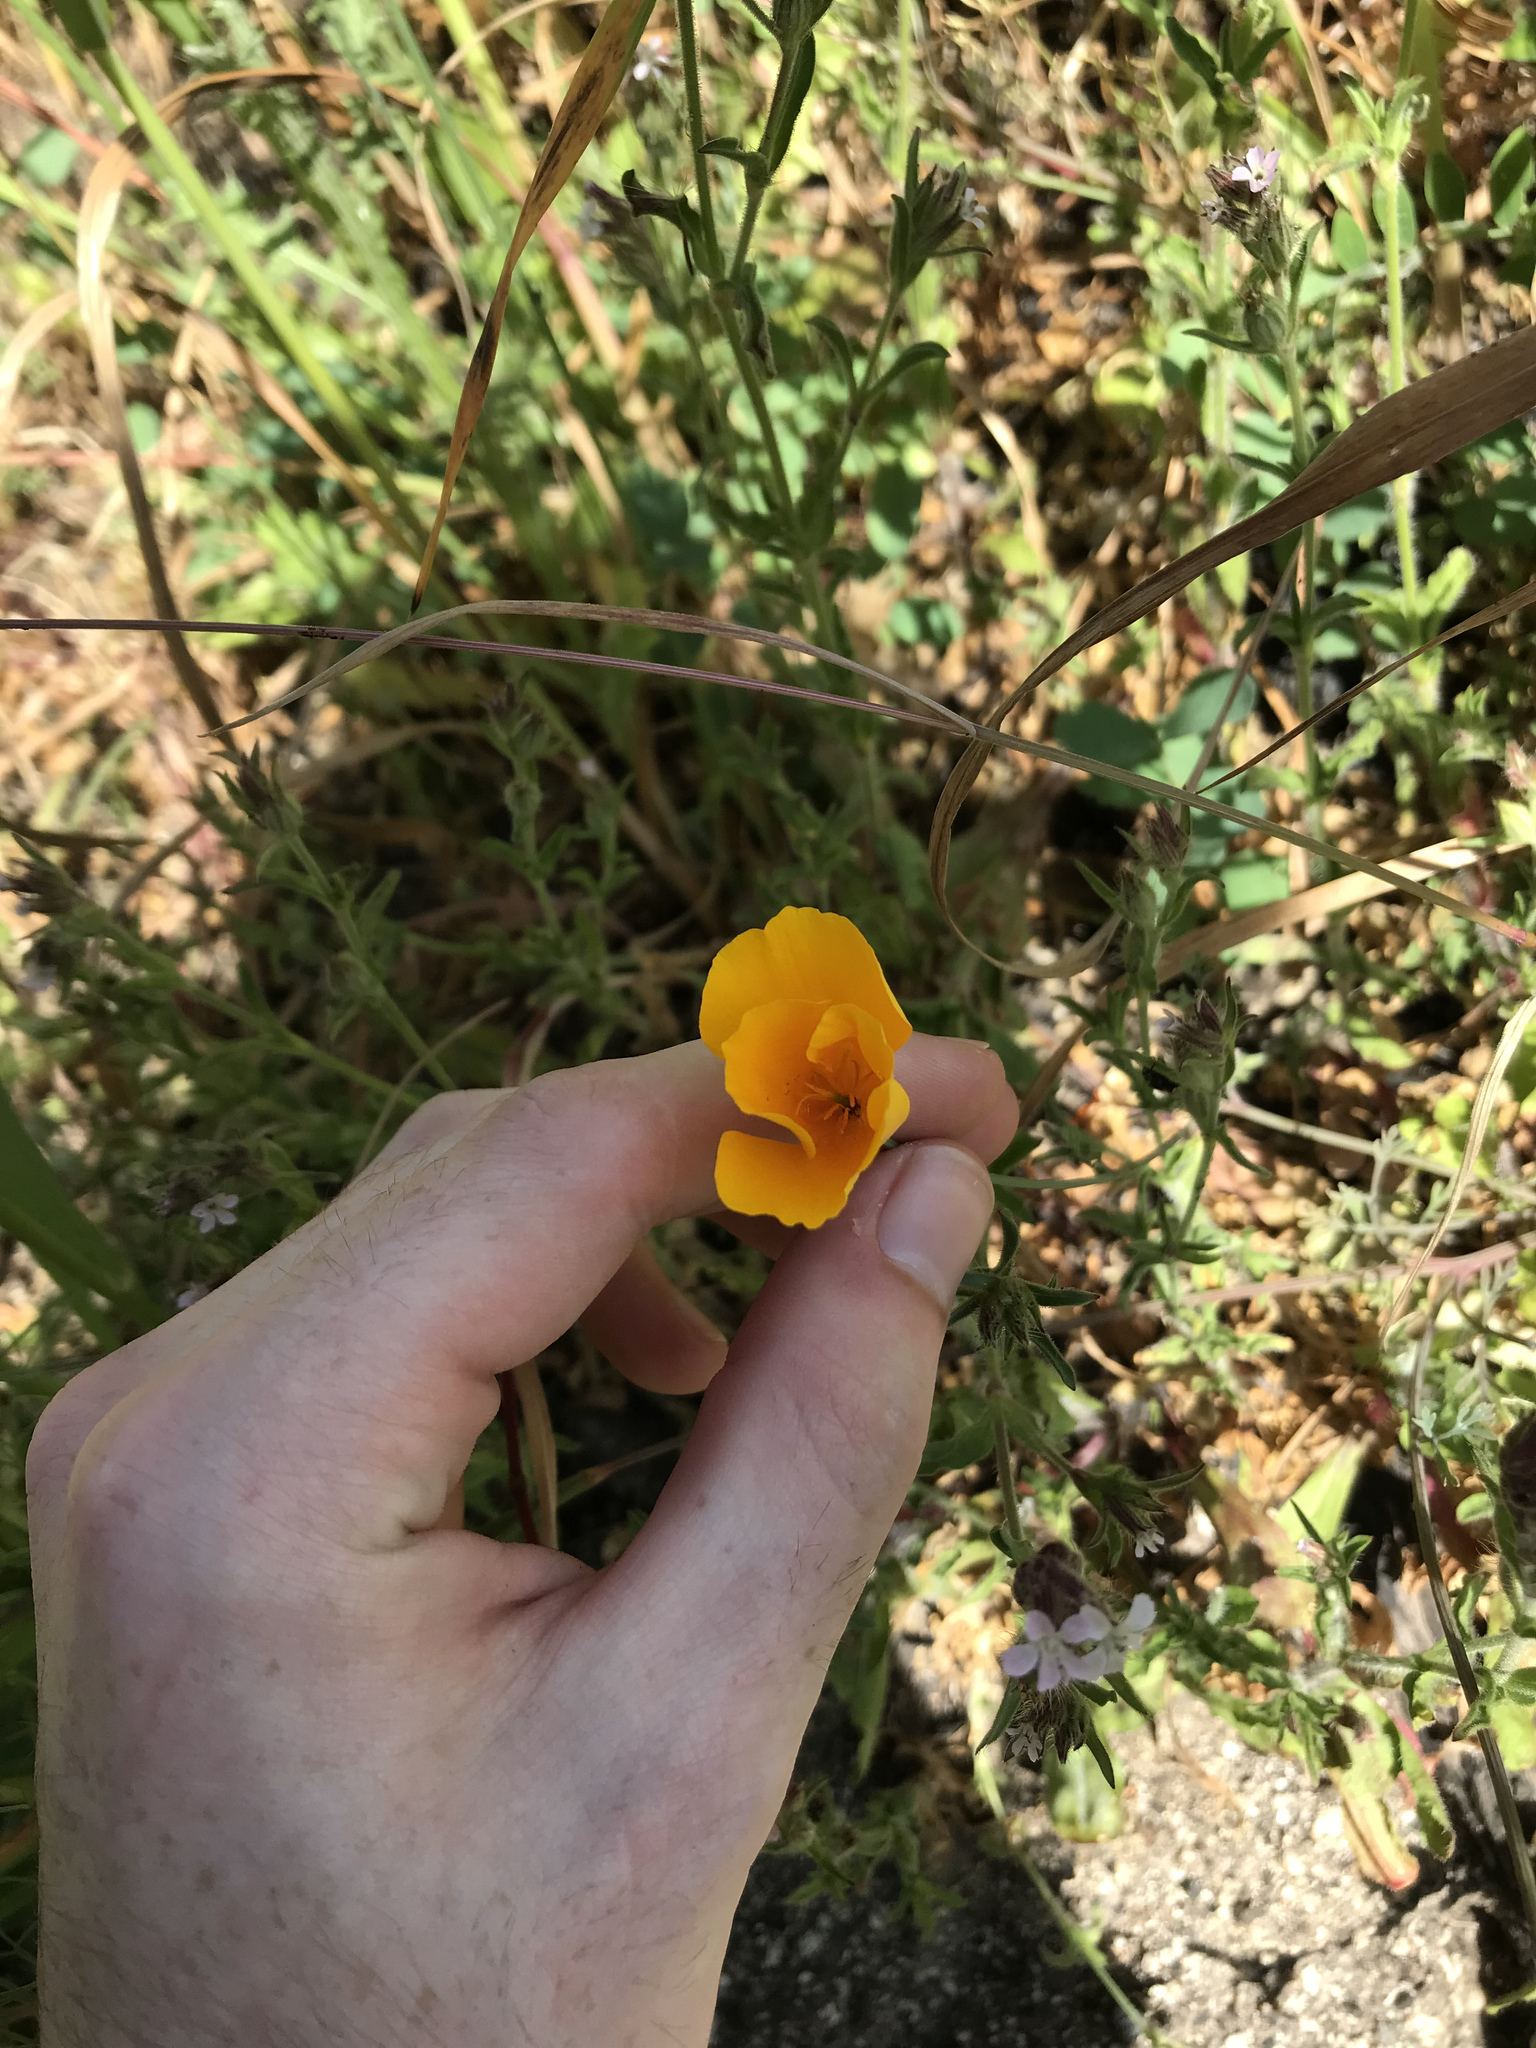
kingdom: Plantae
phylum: Tracheophyta
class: Magnoliopsida
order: Ranunculales
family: Papaveraceae
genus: Eschscholzia
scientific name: Eschscholzia caespitosa
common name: Tufted california-poppy
